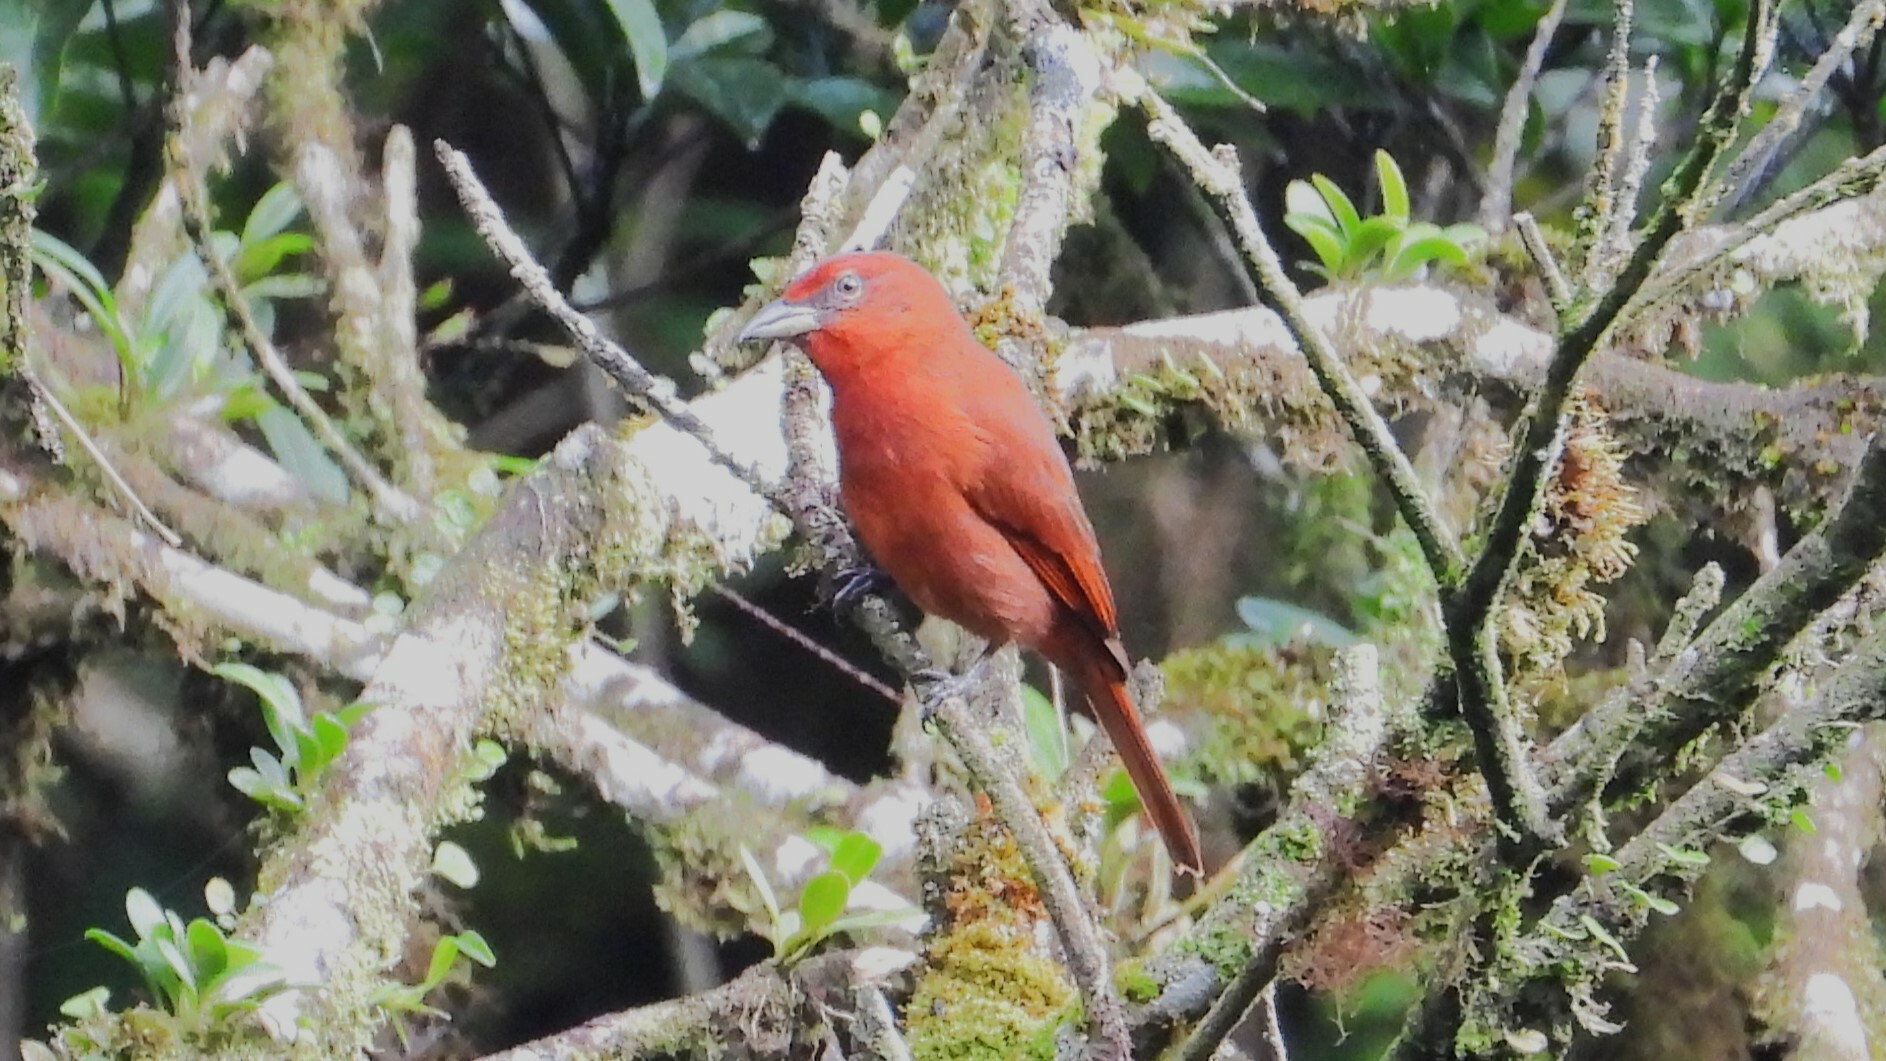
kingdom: Animalia
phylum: Chordata
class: Aves
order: Passeriformes
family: Cardinalidae
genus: Piranga
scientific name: Piranga flava
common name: Red tanager
